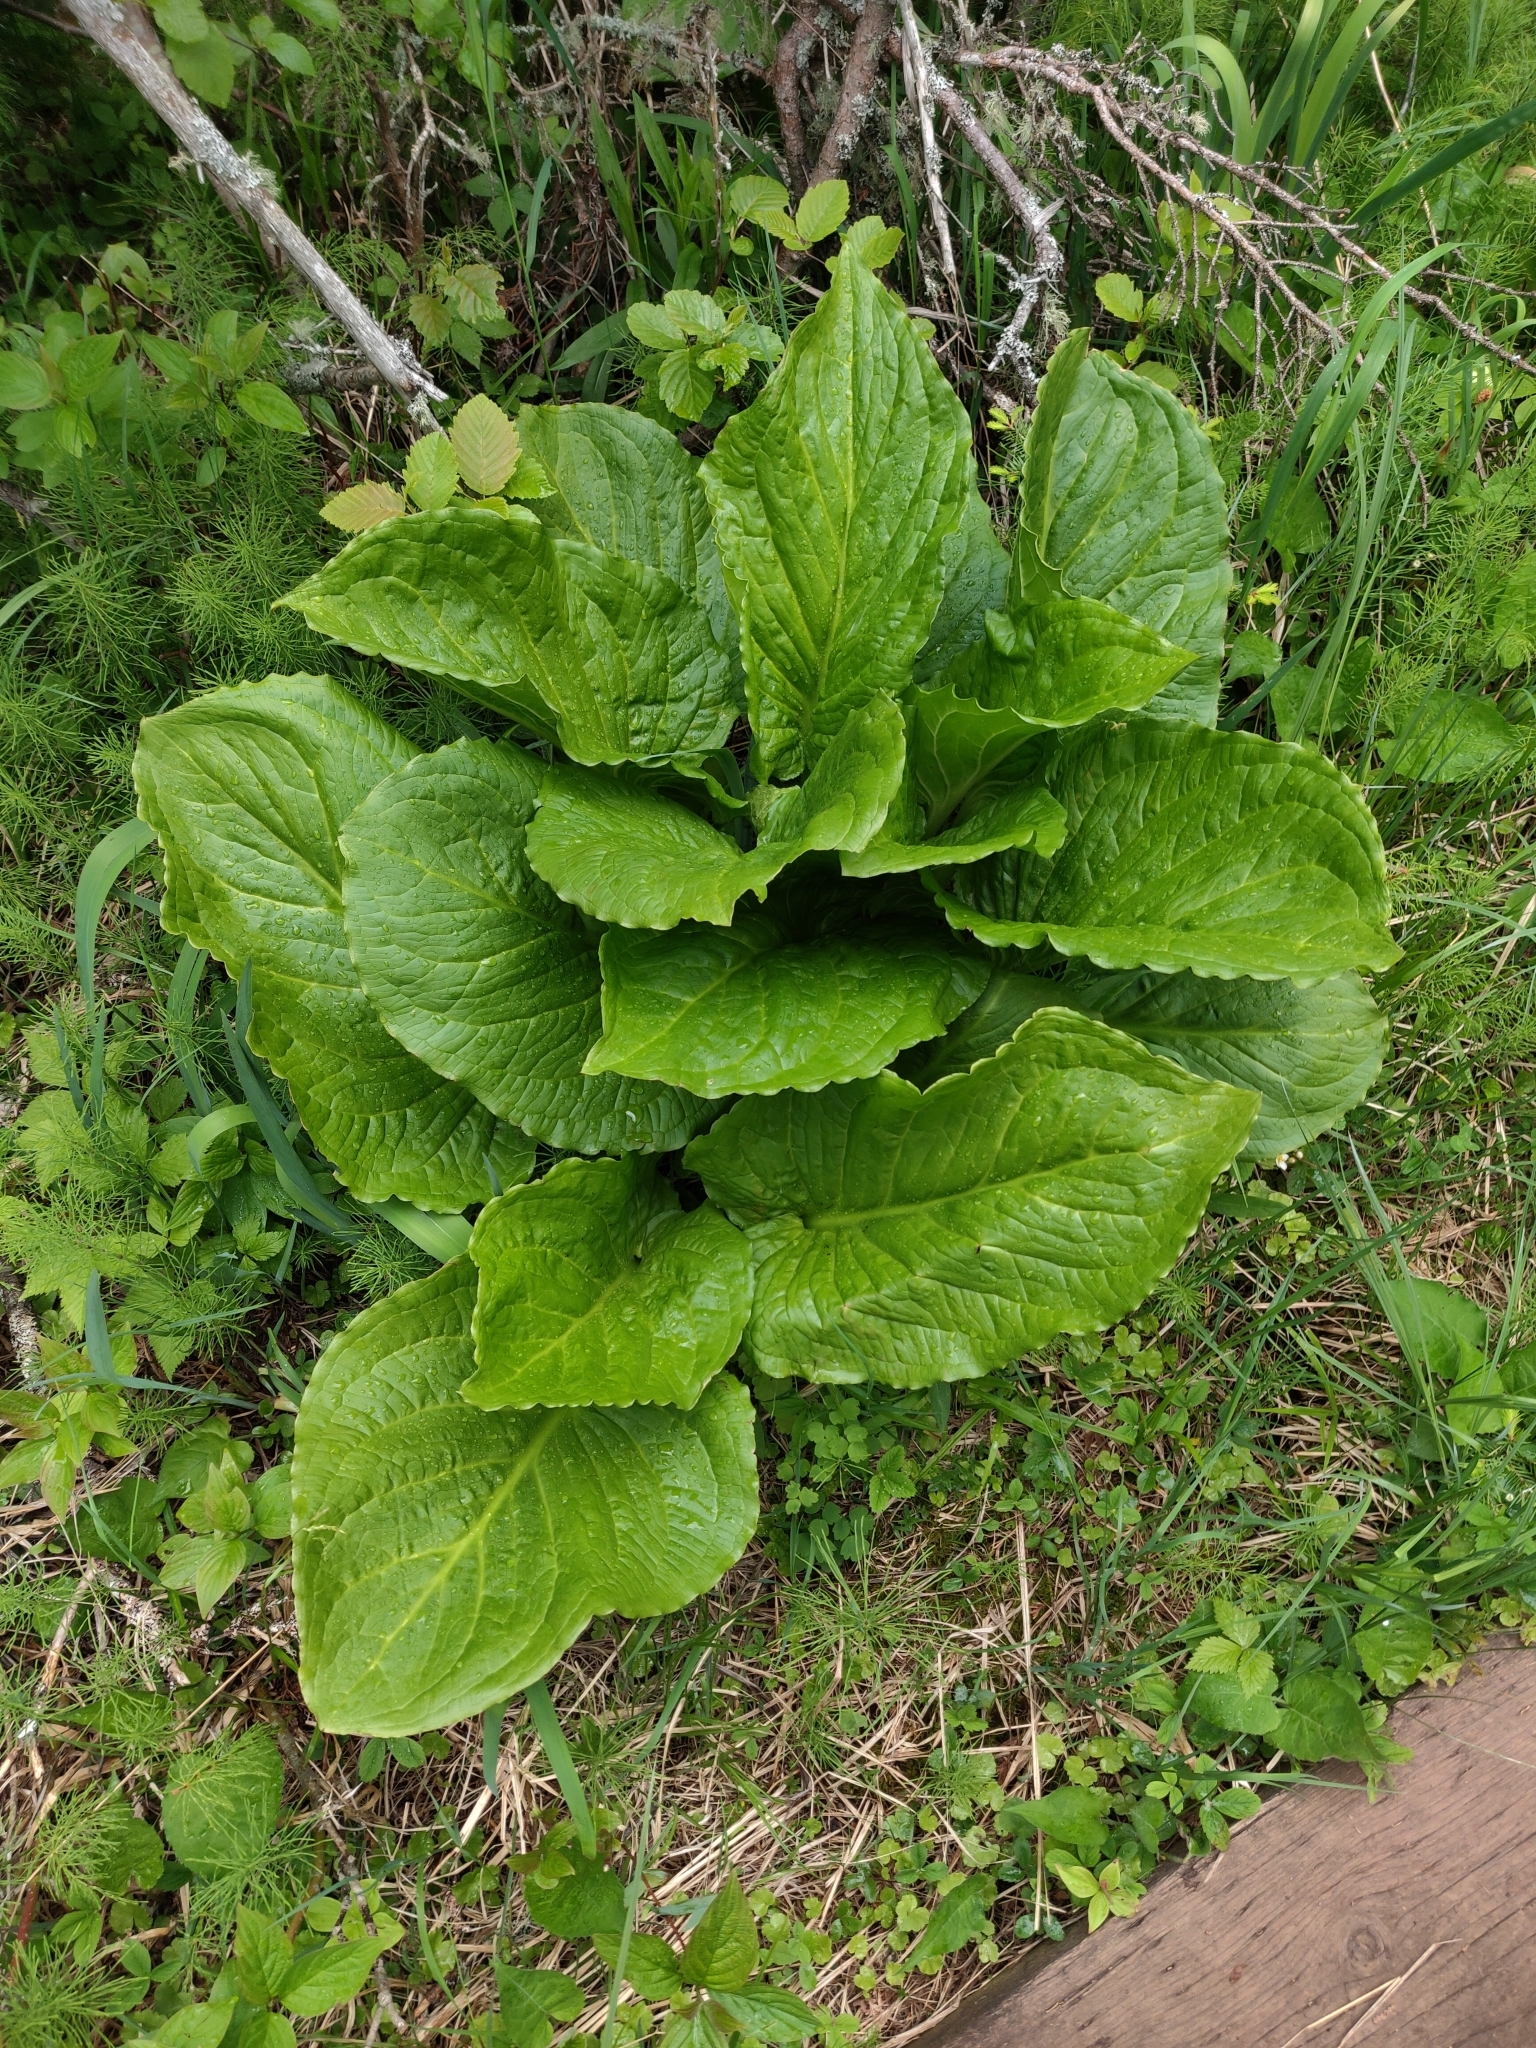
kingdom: Plantae
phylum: Tracheophyta
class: Liliopsida
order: Alismatales
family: Araceae
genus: Symplocarpus
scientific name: Symplocarpus foetidus
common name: Eastern skunk cabbage
